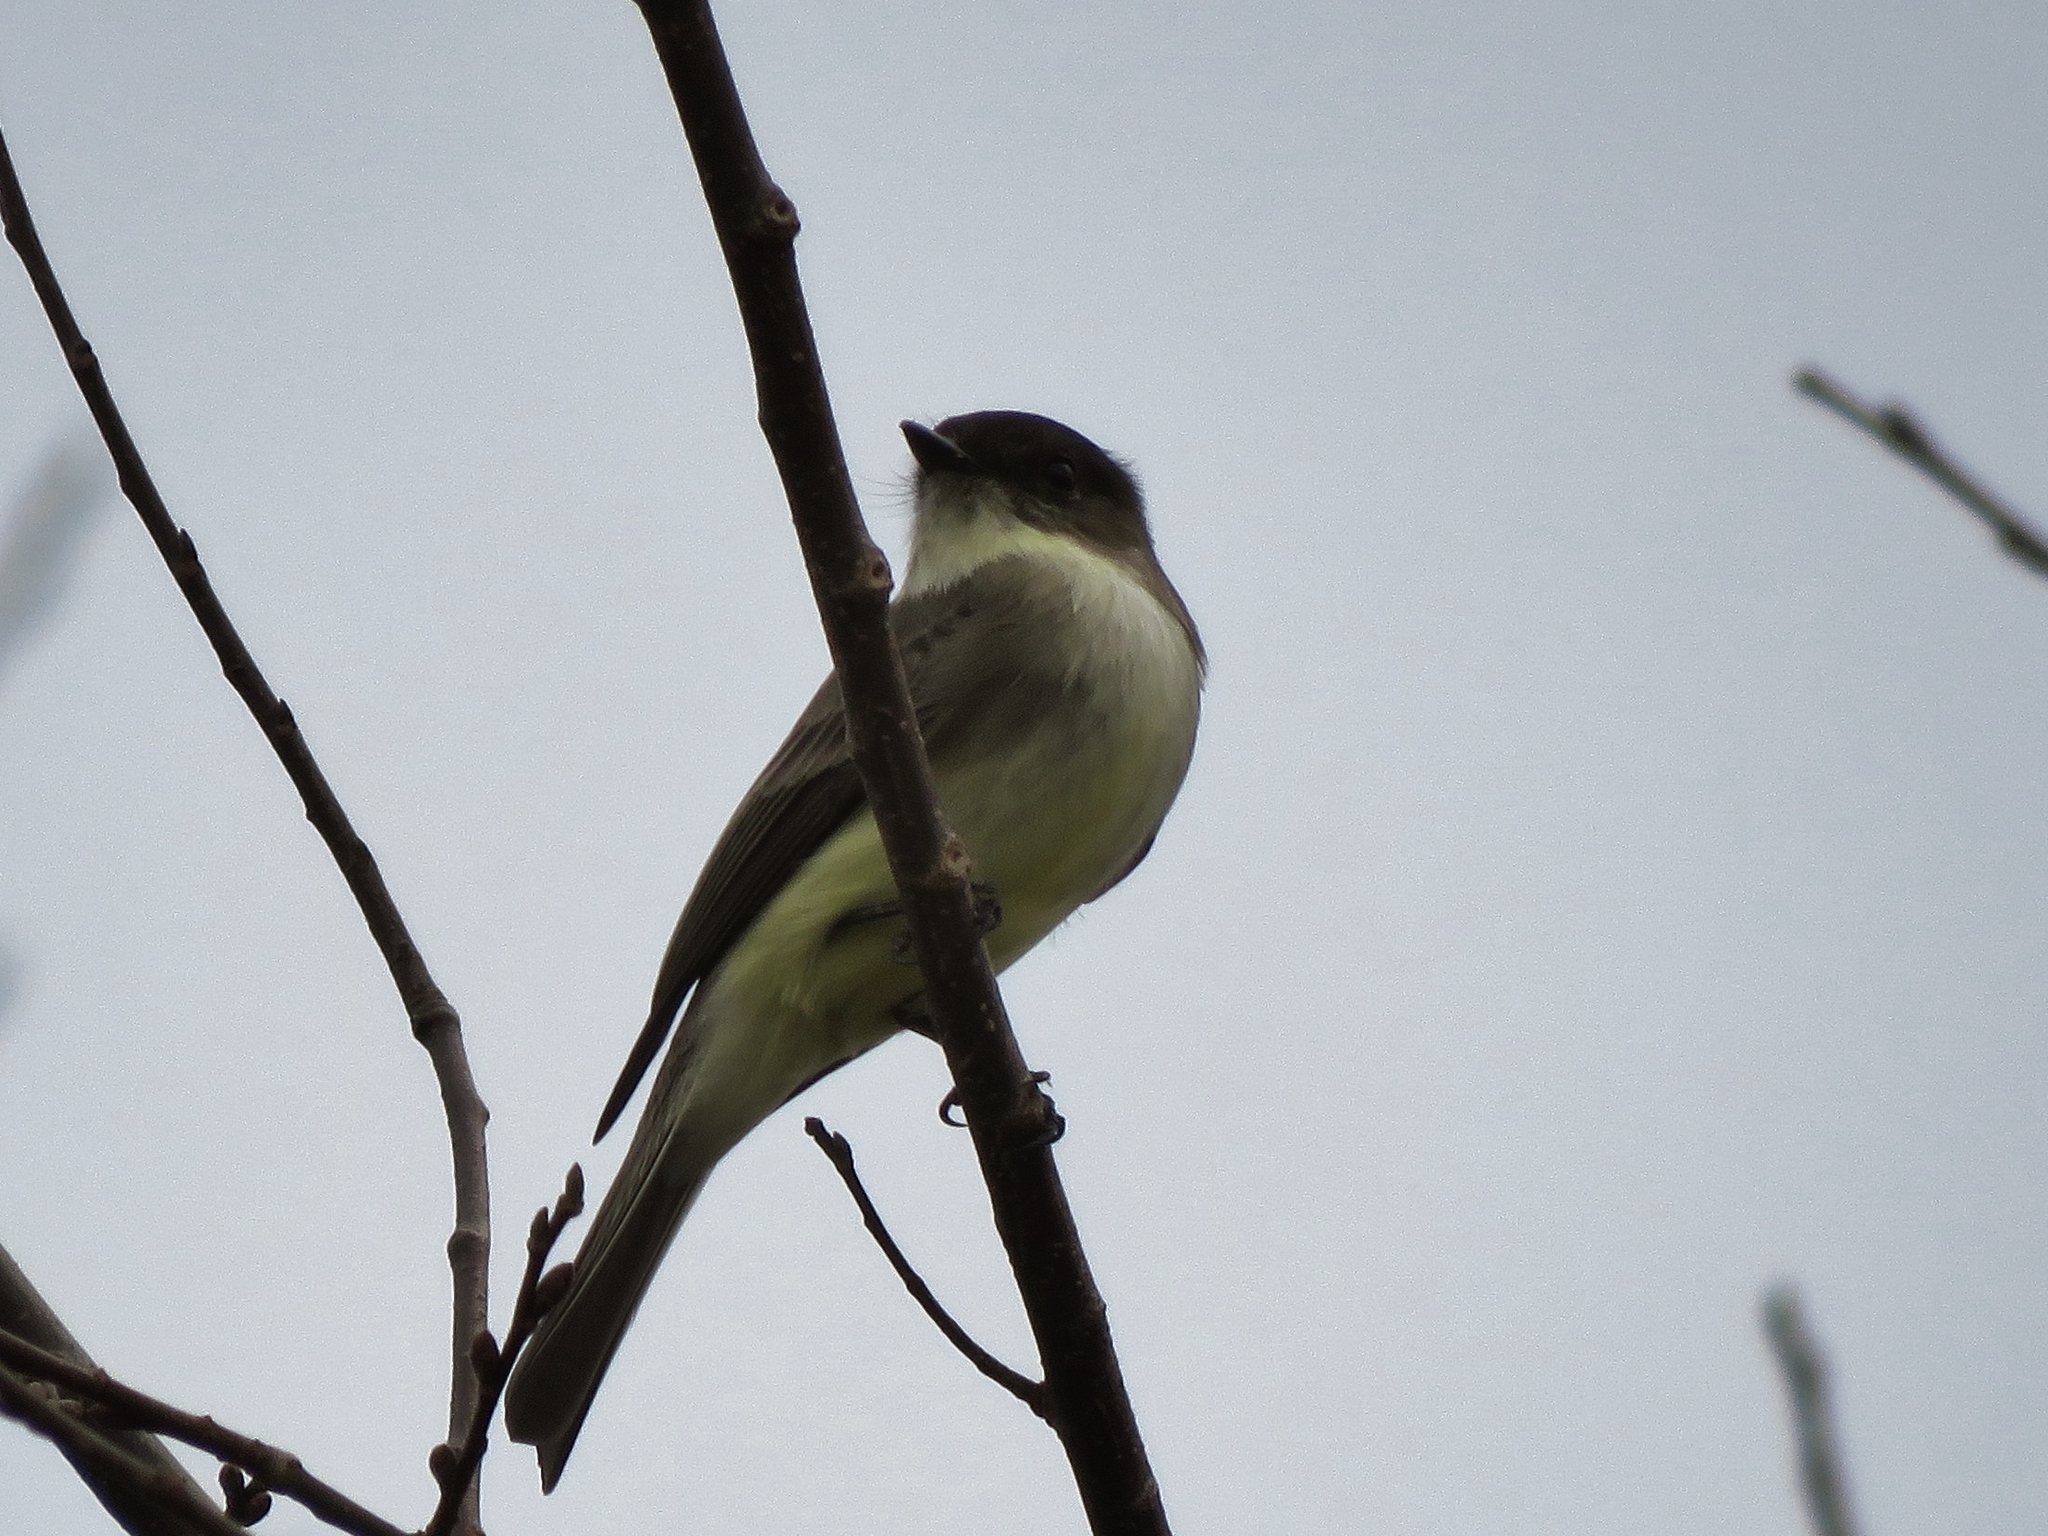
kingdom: Animalia
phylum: Chordata
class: Aves
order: Passeriformes
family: Tyrannidae
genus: Sayornis
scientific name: Sayornis phoebe
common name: Eastern phoebe
